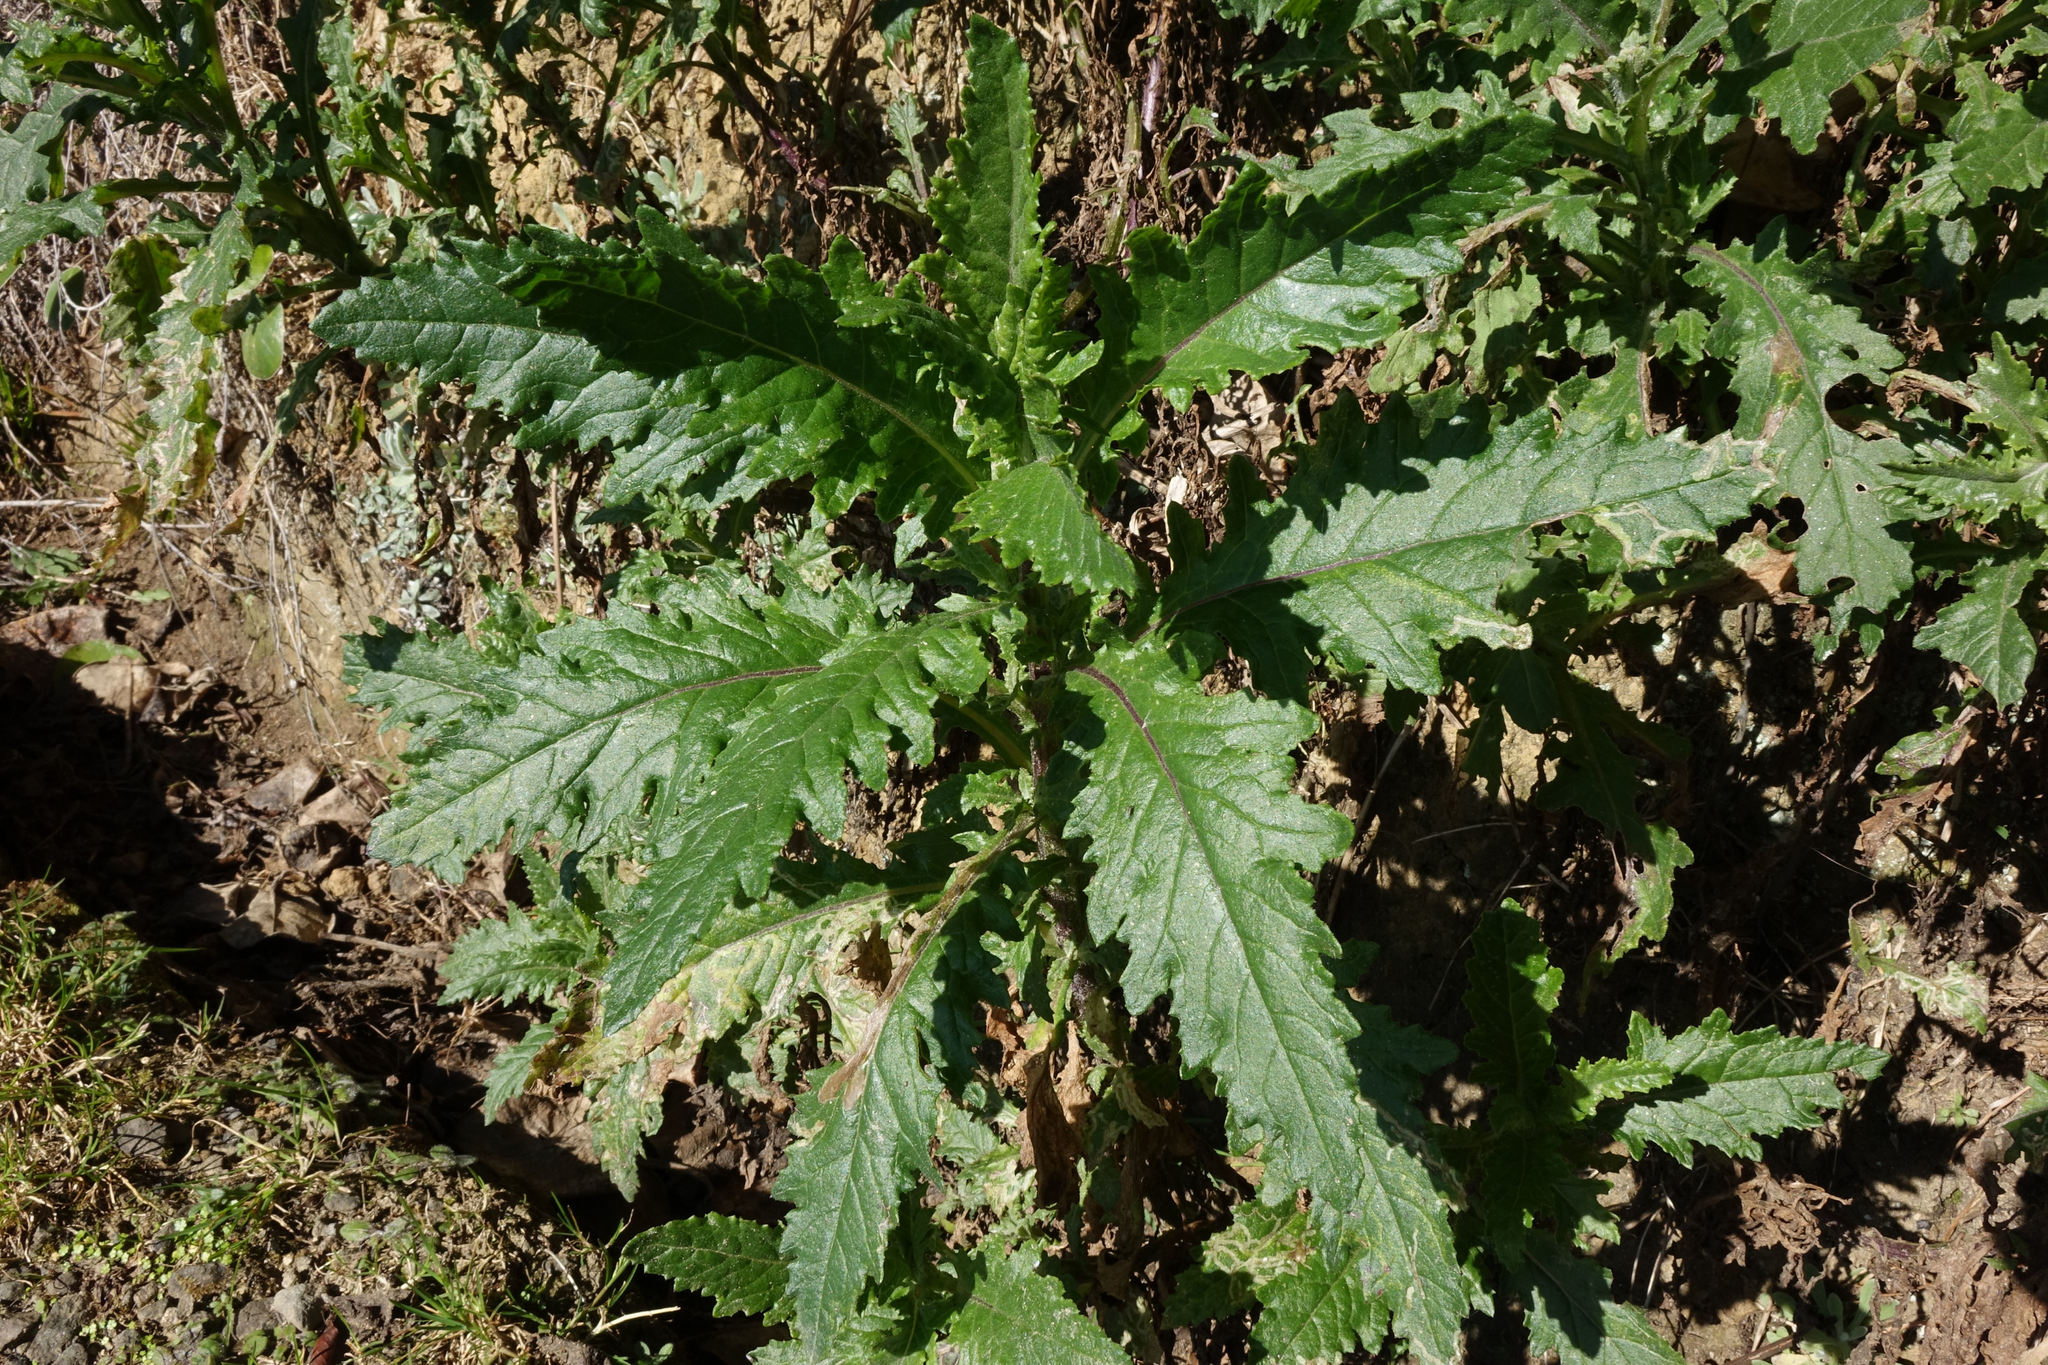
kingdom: Plantae
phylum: Tracheophyta
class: Magnoliopsida
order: Asterales
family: Asteraceae
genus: Senecio
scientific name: Senecio biserratus
